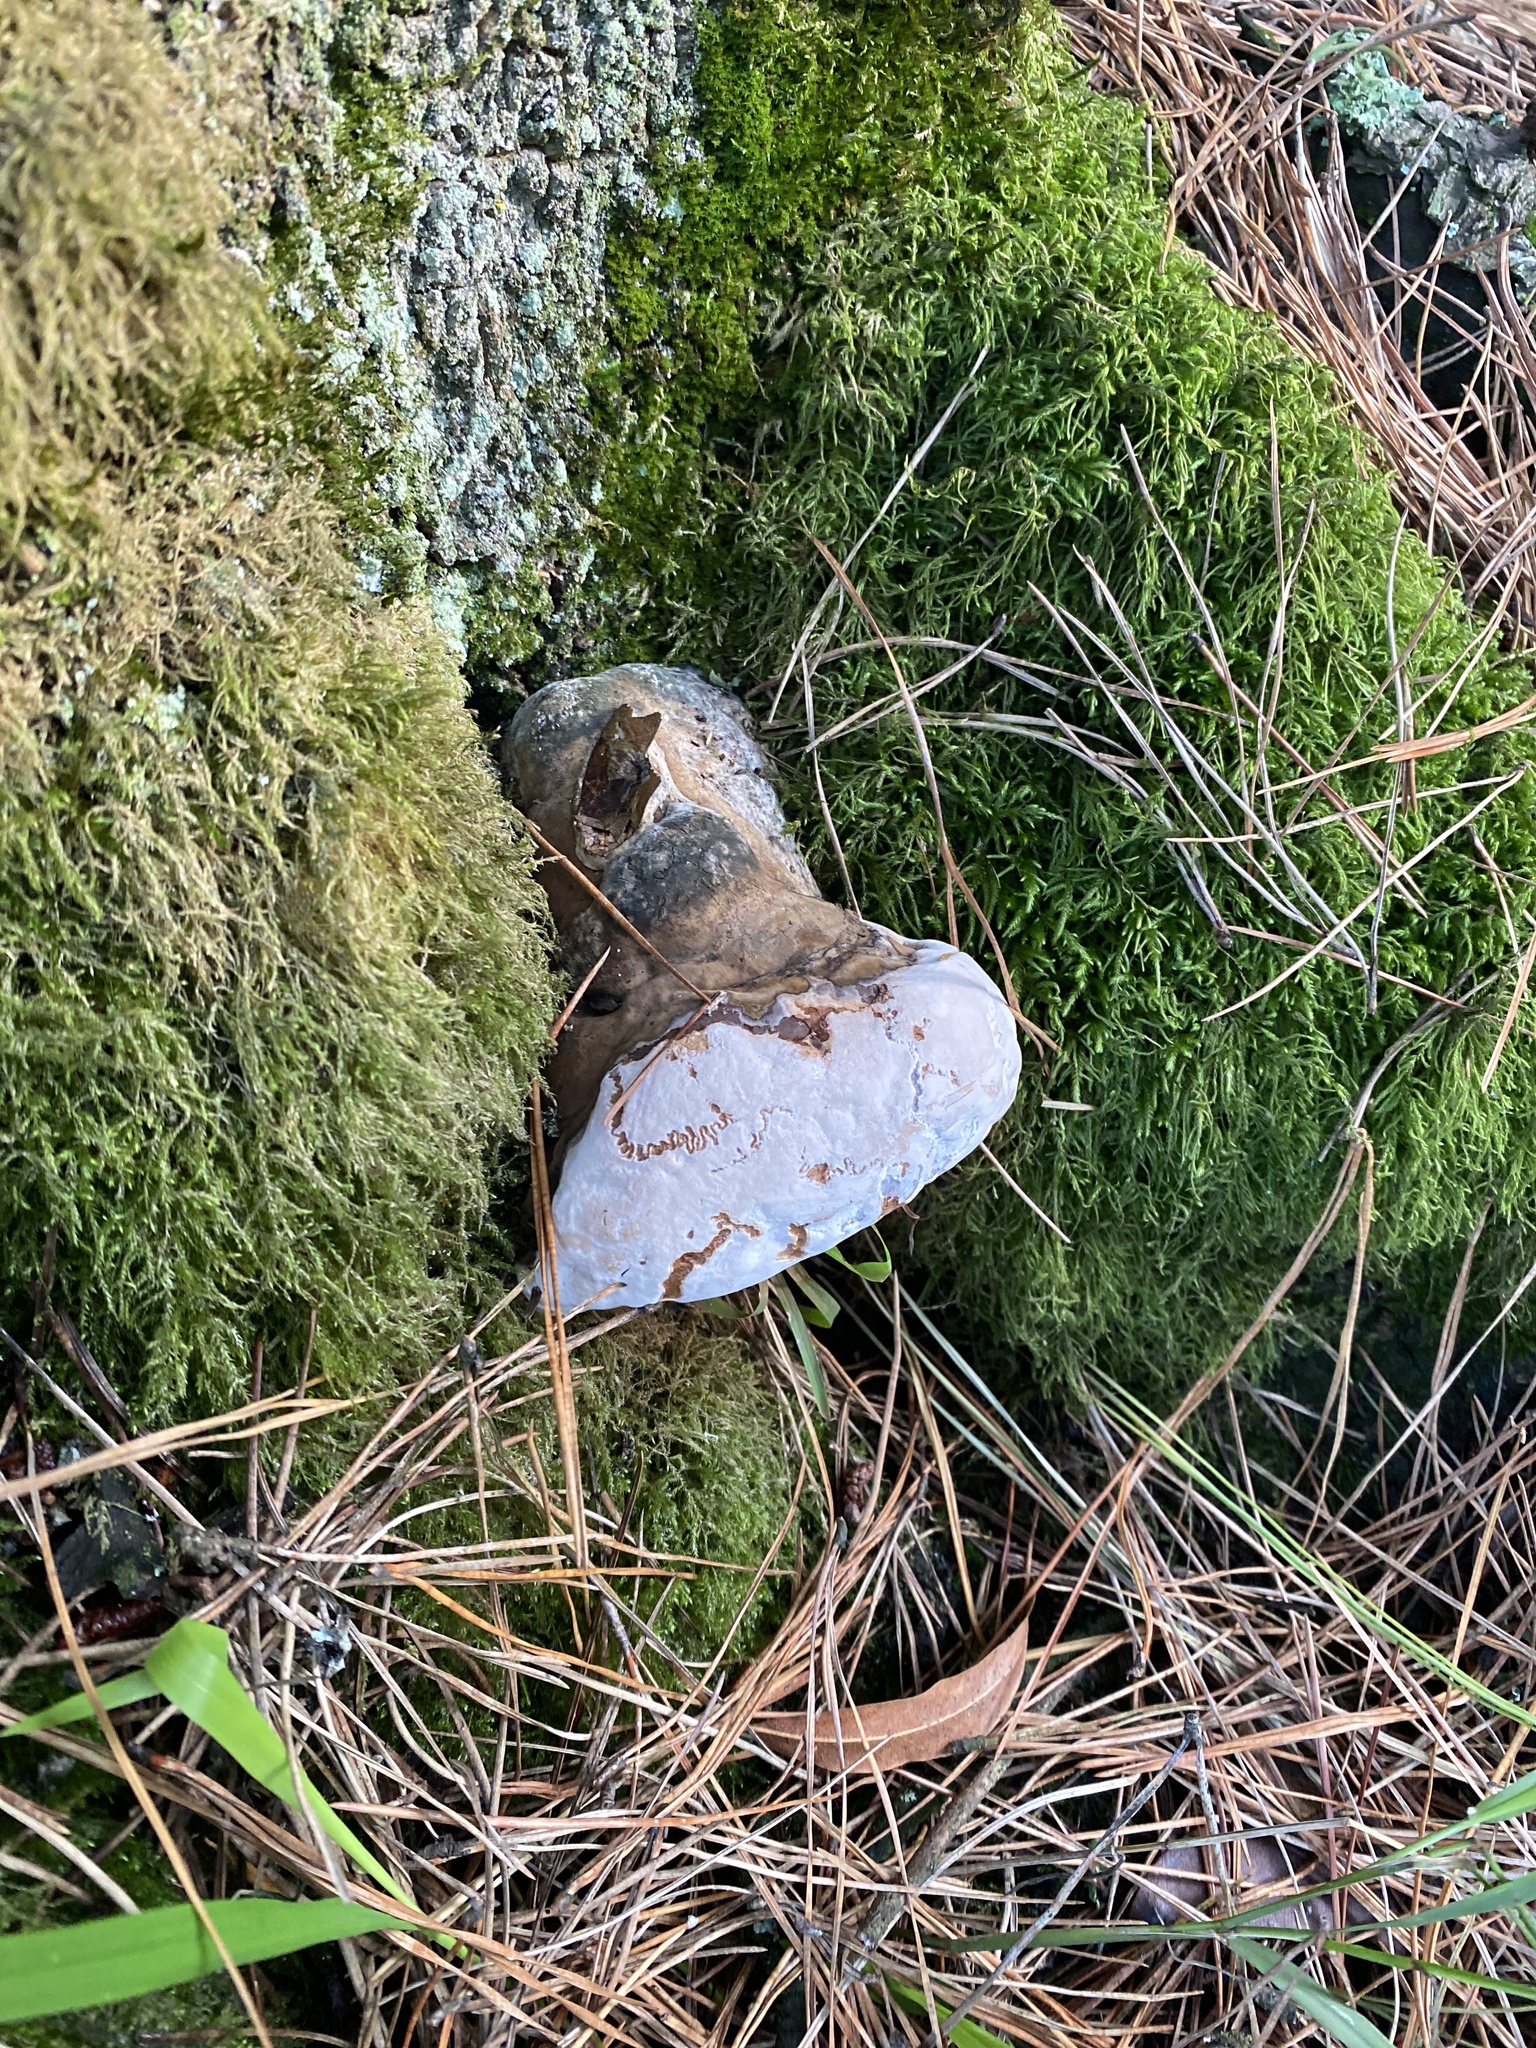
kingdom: Fungi
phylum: Basidiomycota
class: Agaricomycetes
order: Polyporales
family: Polyporaceae
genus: Ganoderma
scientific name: Ganoderma brownii
